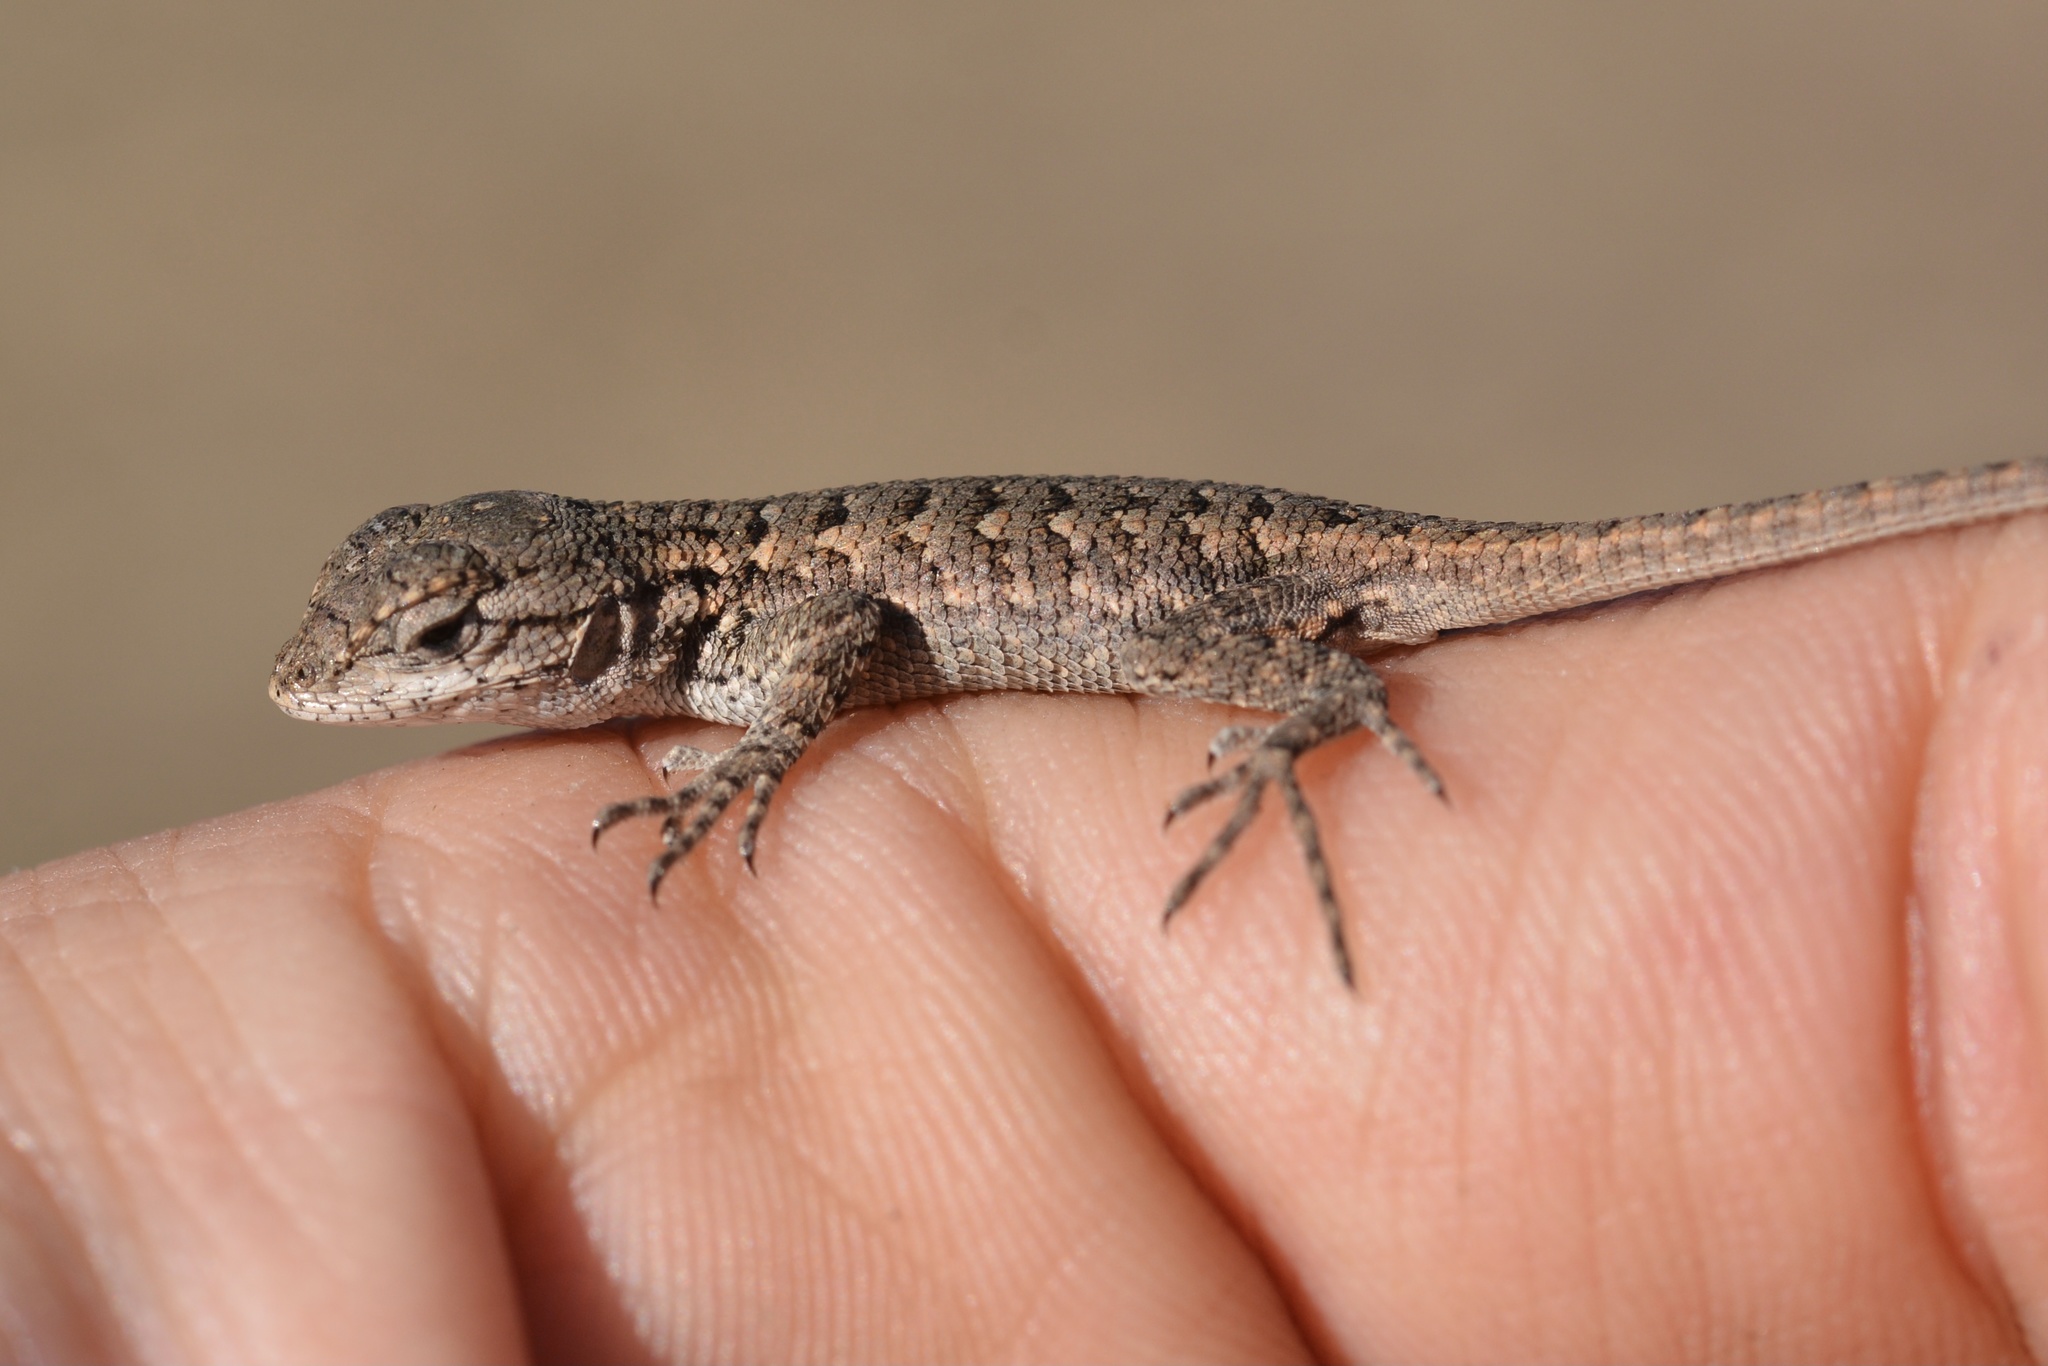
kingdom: Animalia
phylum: Chordata
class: Squamata
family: Phrynosomatidae
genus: Sceloporus
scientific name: Sceloporus occidentalis
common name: Western fence lizard
